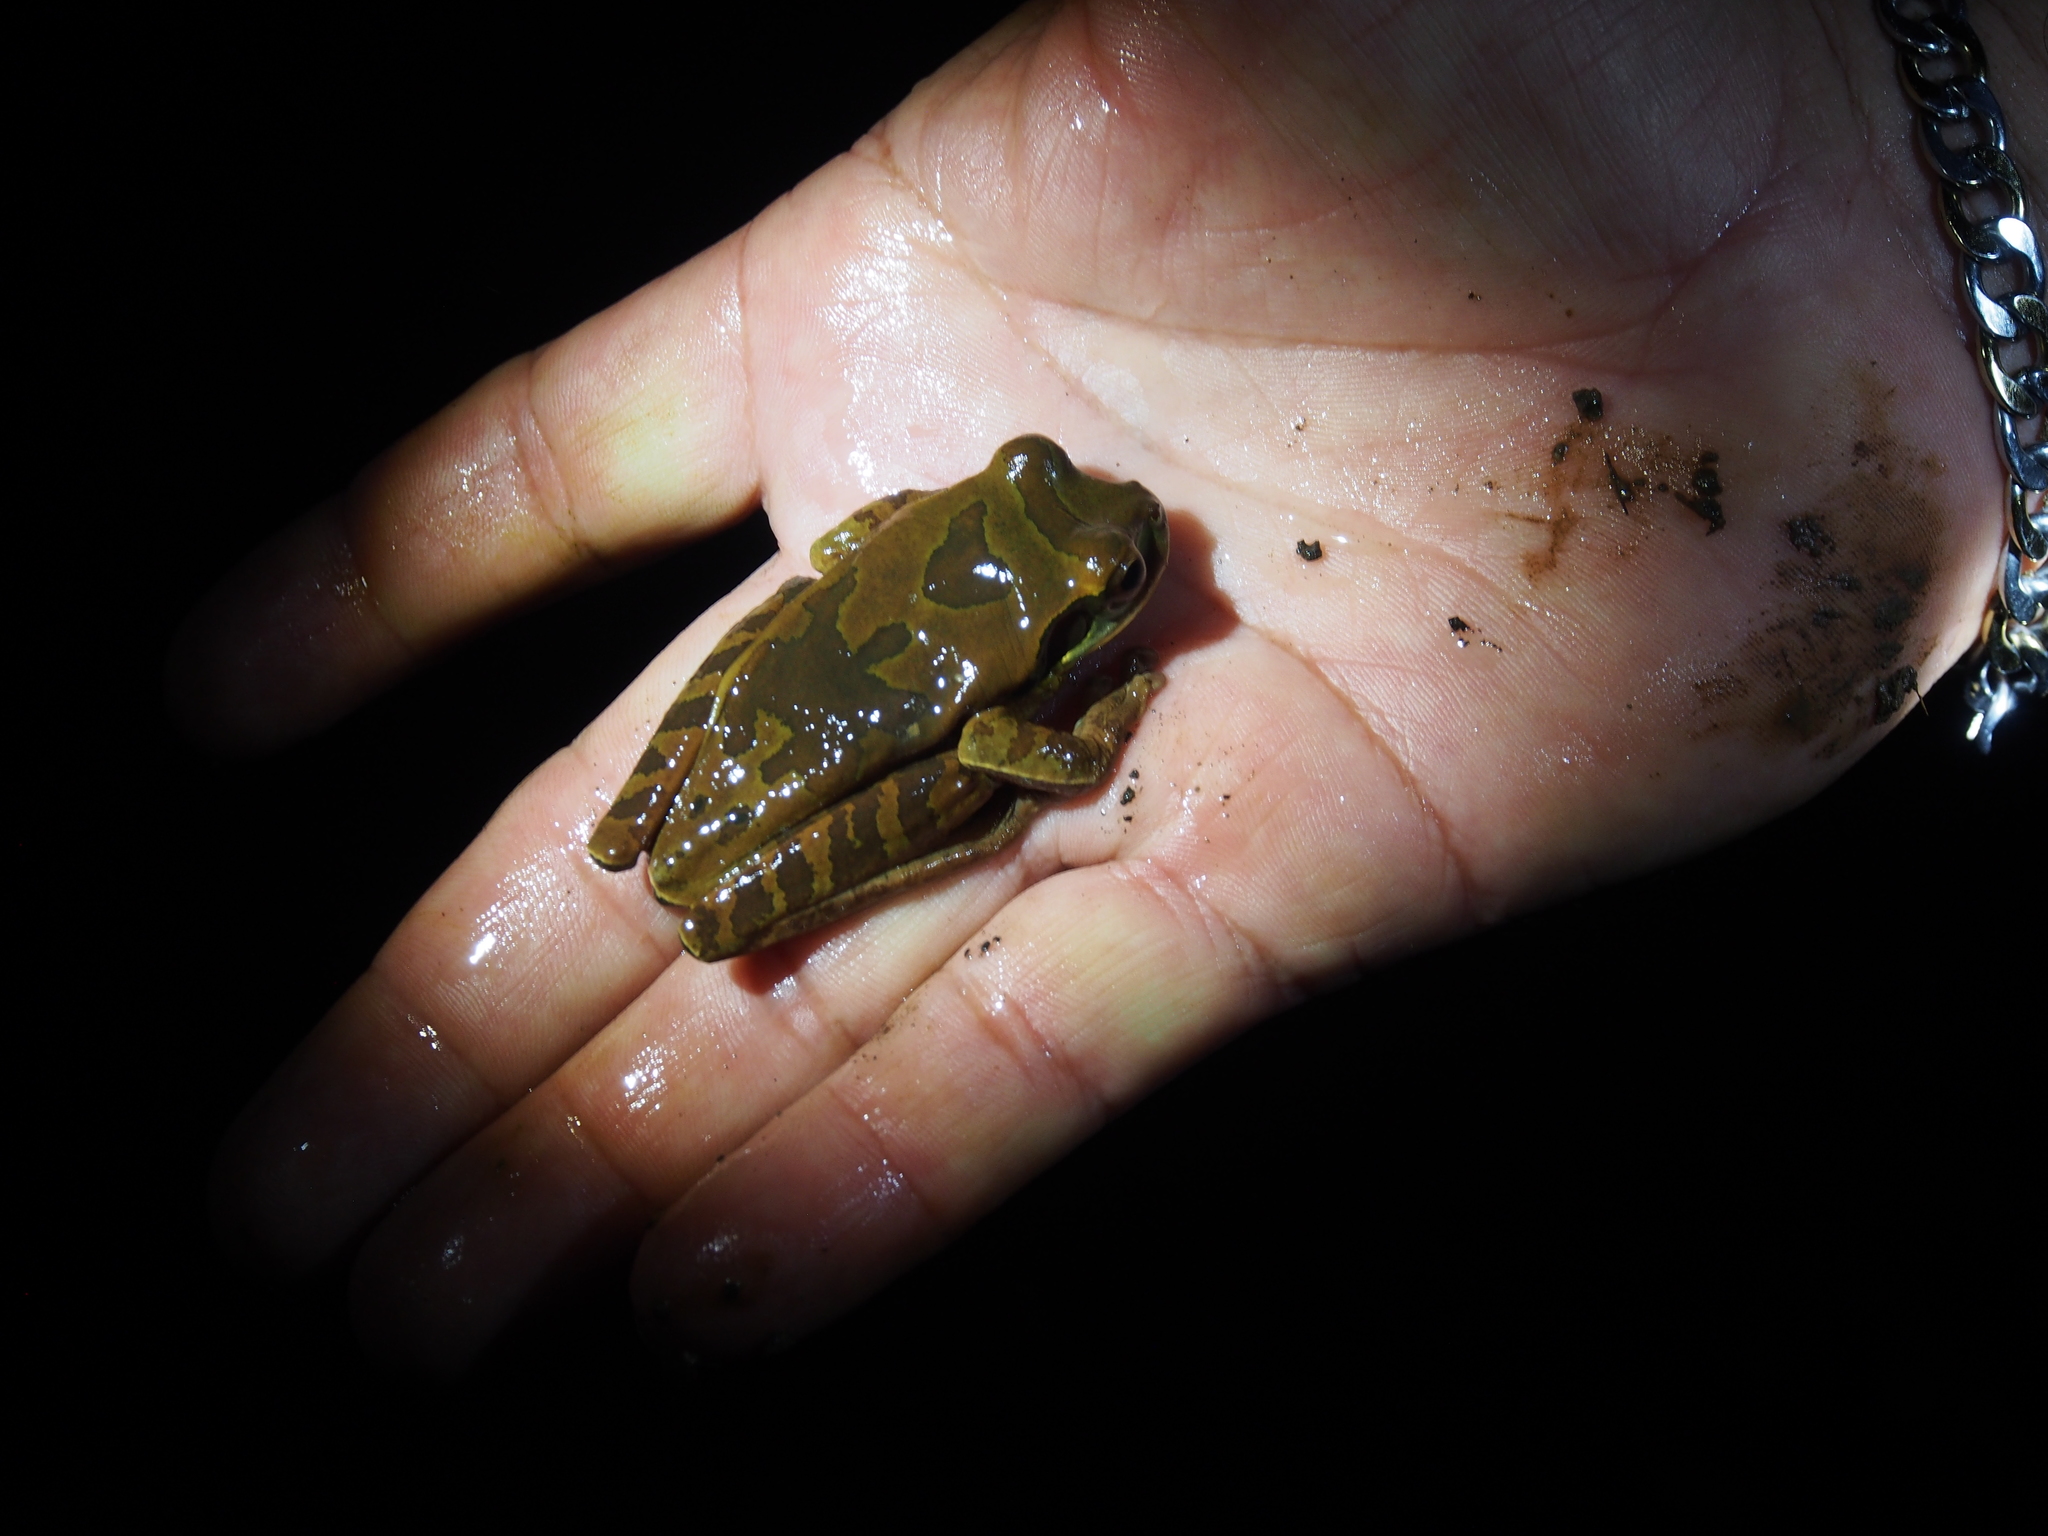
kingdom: Animalia
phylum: Chordata
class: Amphibia
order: Anura
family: Hylidae
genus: Smilisca
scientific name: Smilisca phaeota
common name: Central american smilisca
